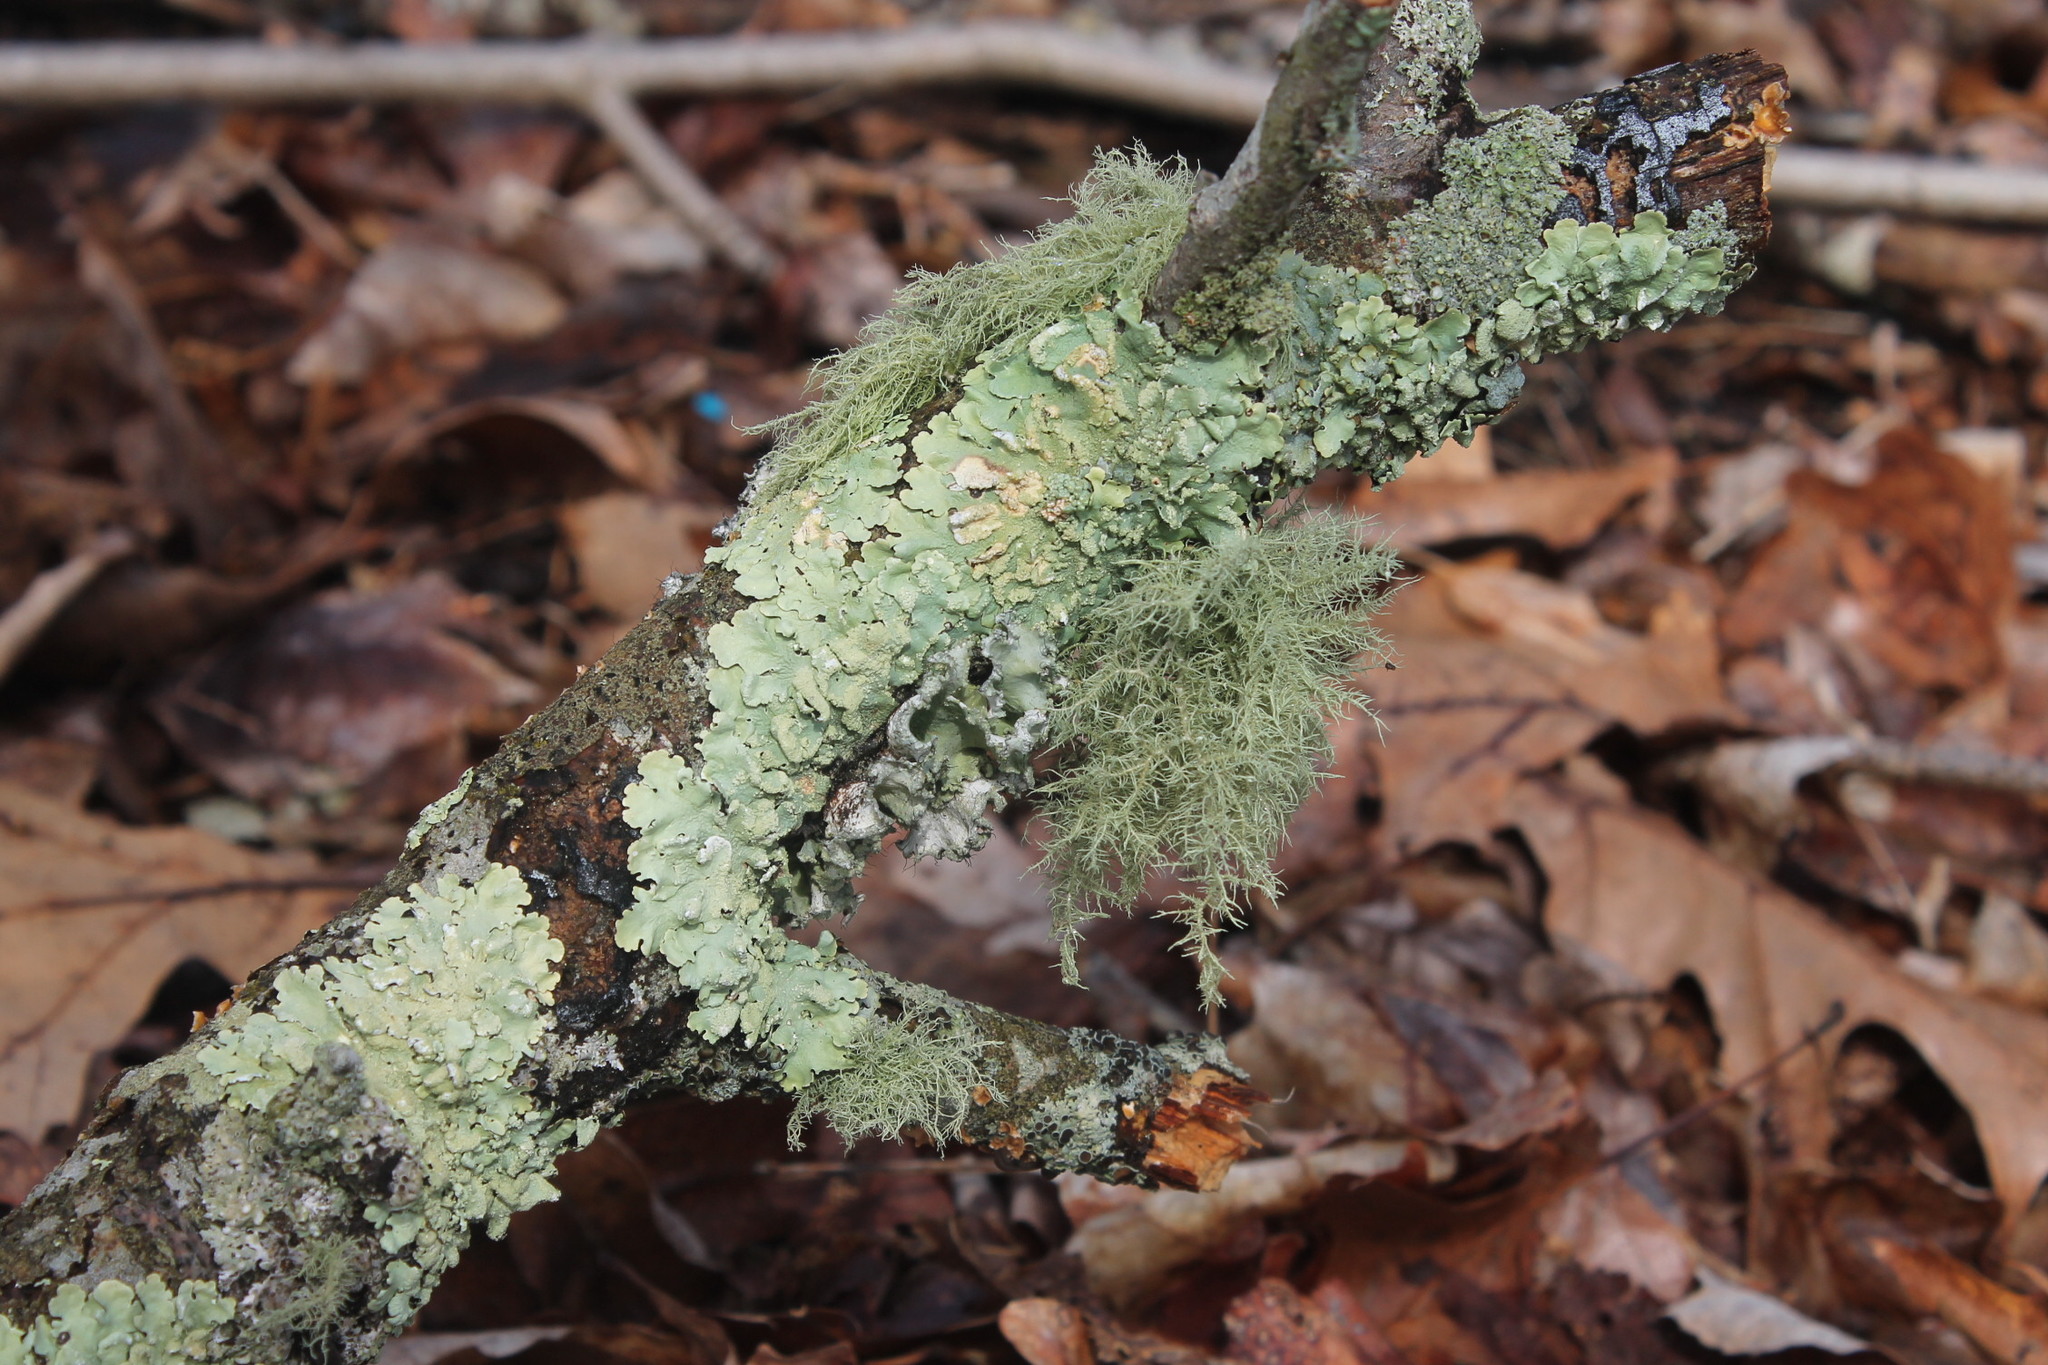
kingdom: Fungi
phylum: Ascomycota
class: Lecanoromycetes
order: Lecanorales
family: Parmeliaceae
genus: Usnea
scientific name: Usnea hirta
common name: Bristly beard lichen
